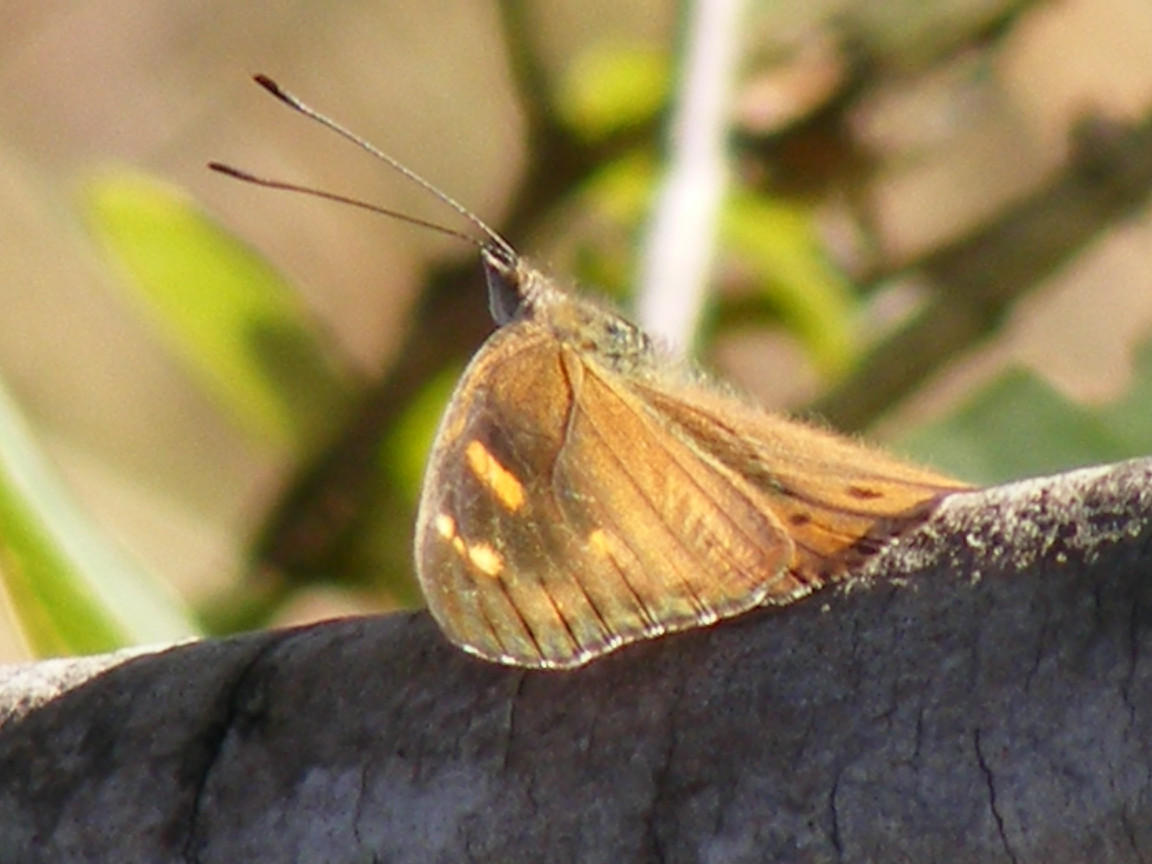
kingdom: Animalia
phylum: Arthropoda
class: Insecta
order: Lepidoptera
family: Nymphalidae
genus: Asterope
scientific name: Asterope boisduvali
